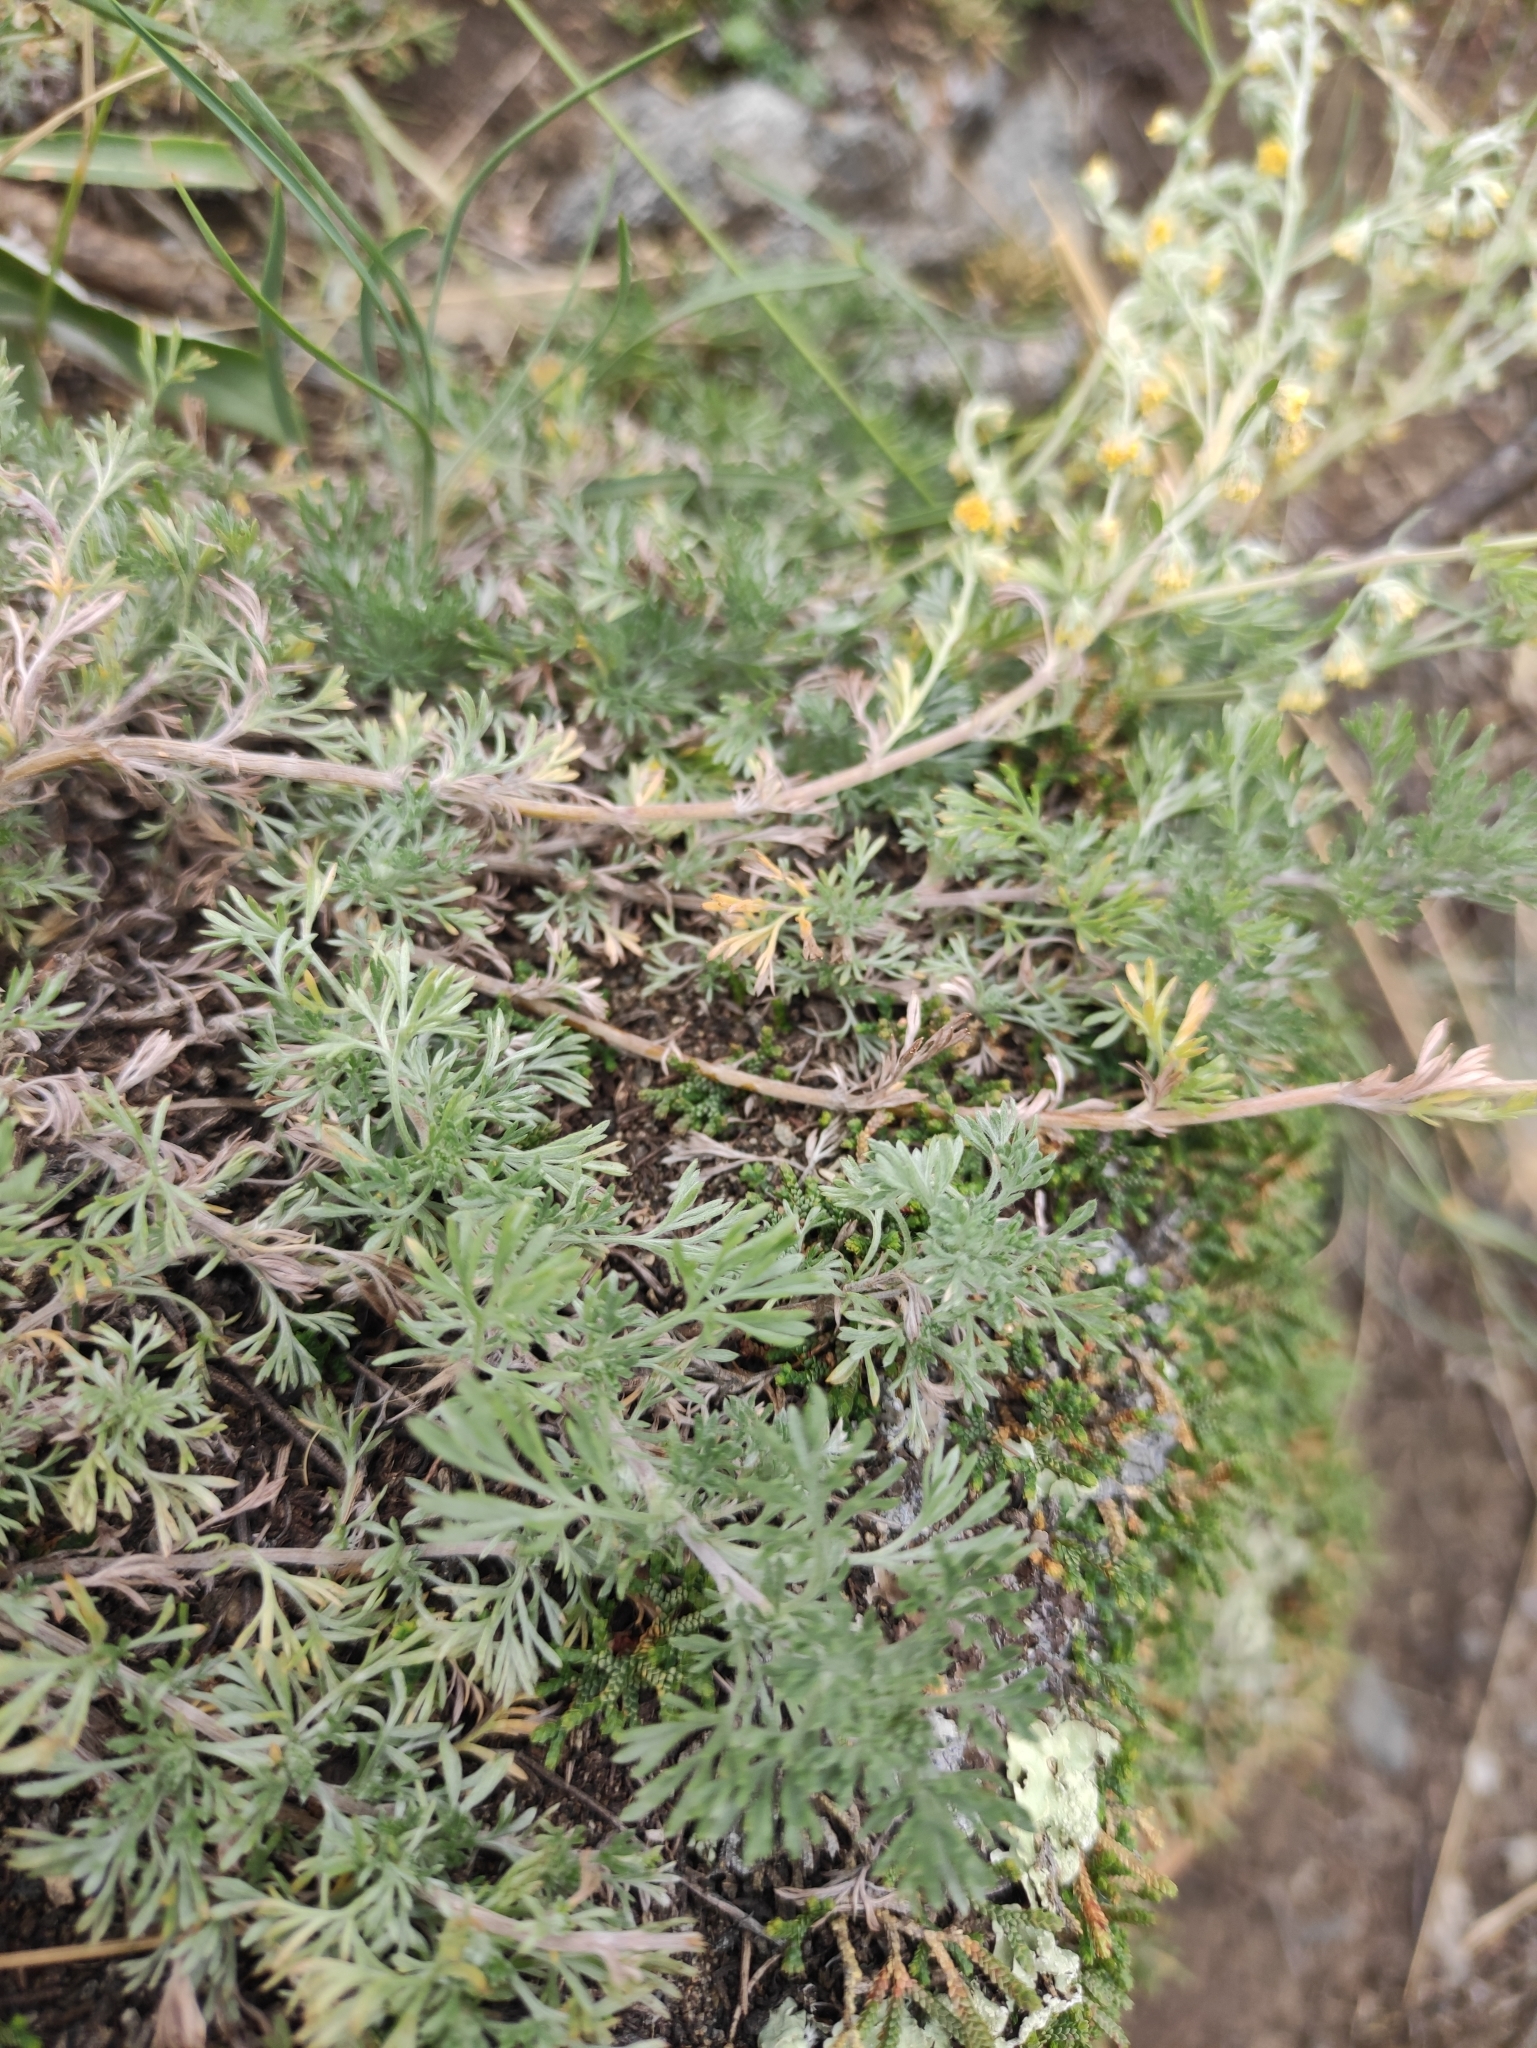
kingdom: Plantae
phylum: Tracheophyta
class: Magnoliopsida
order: Asterales
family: Asteraceae
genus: Artemisia
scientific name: Artemisia frigida
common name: Prairie sagewort
